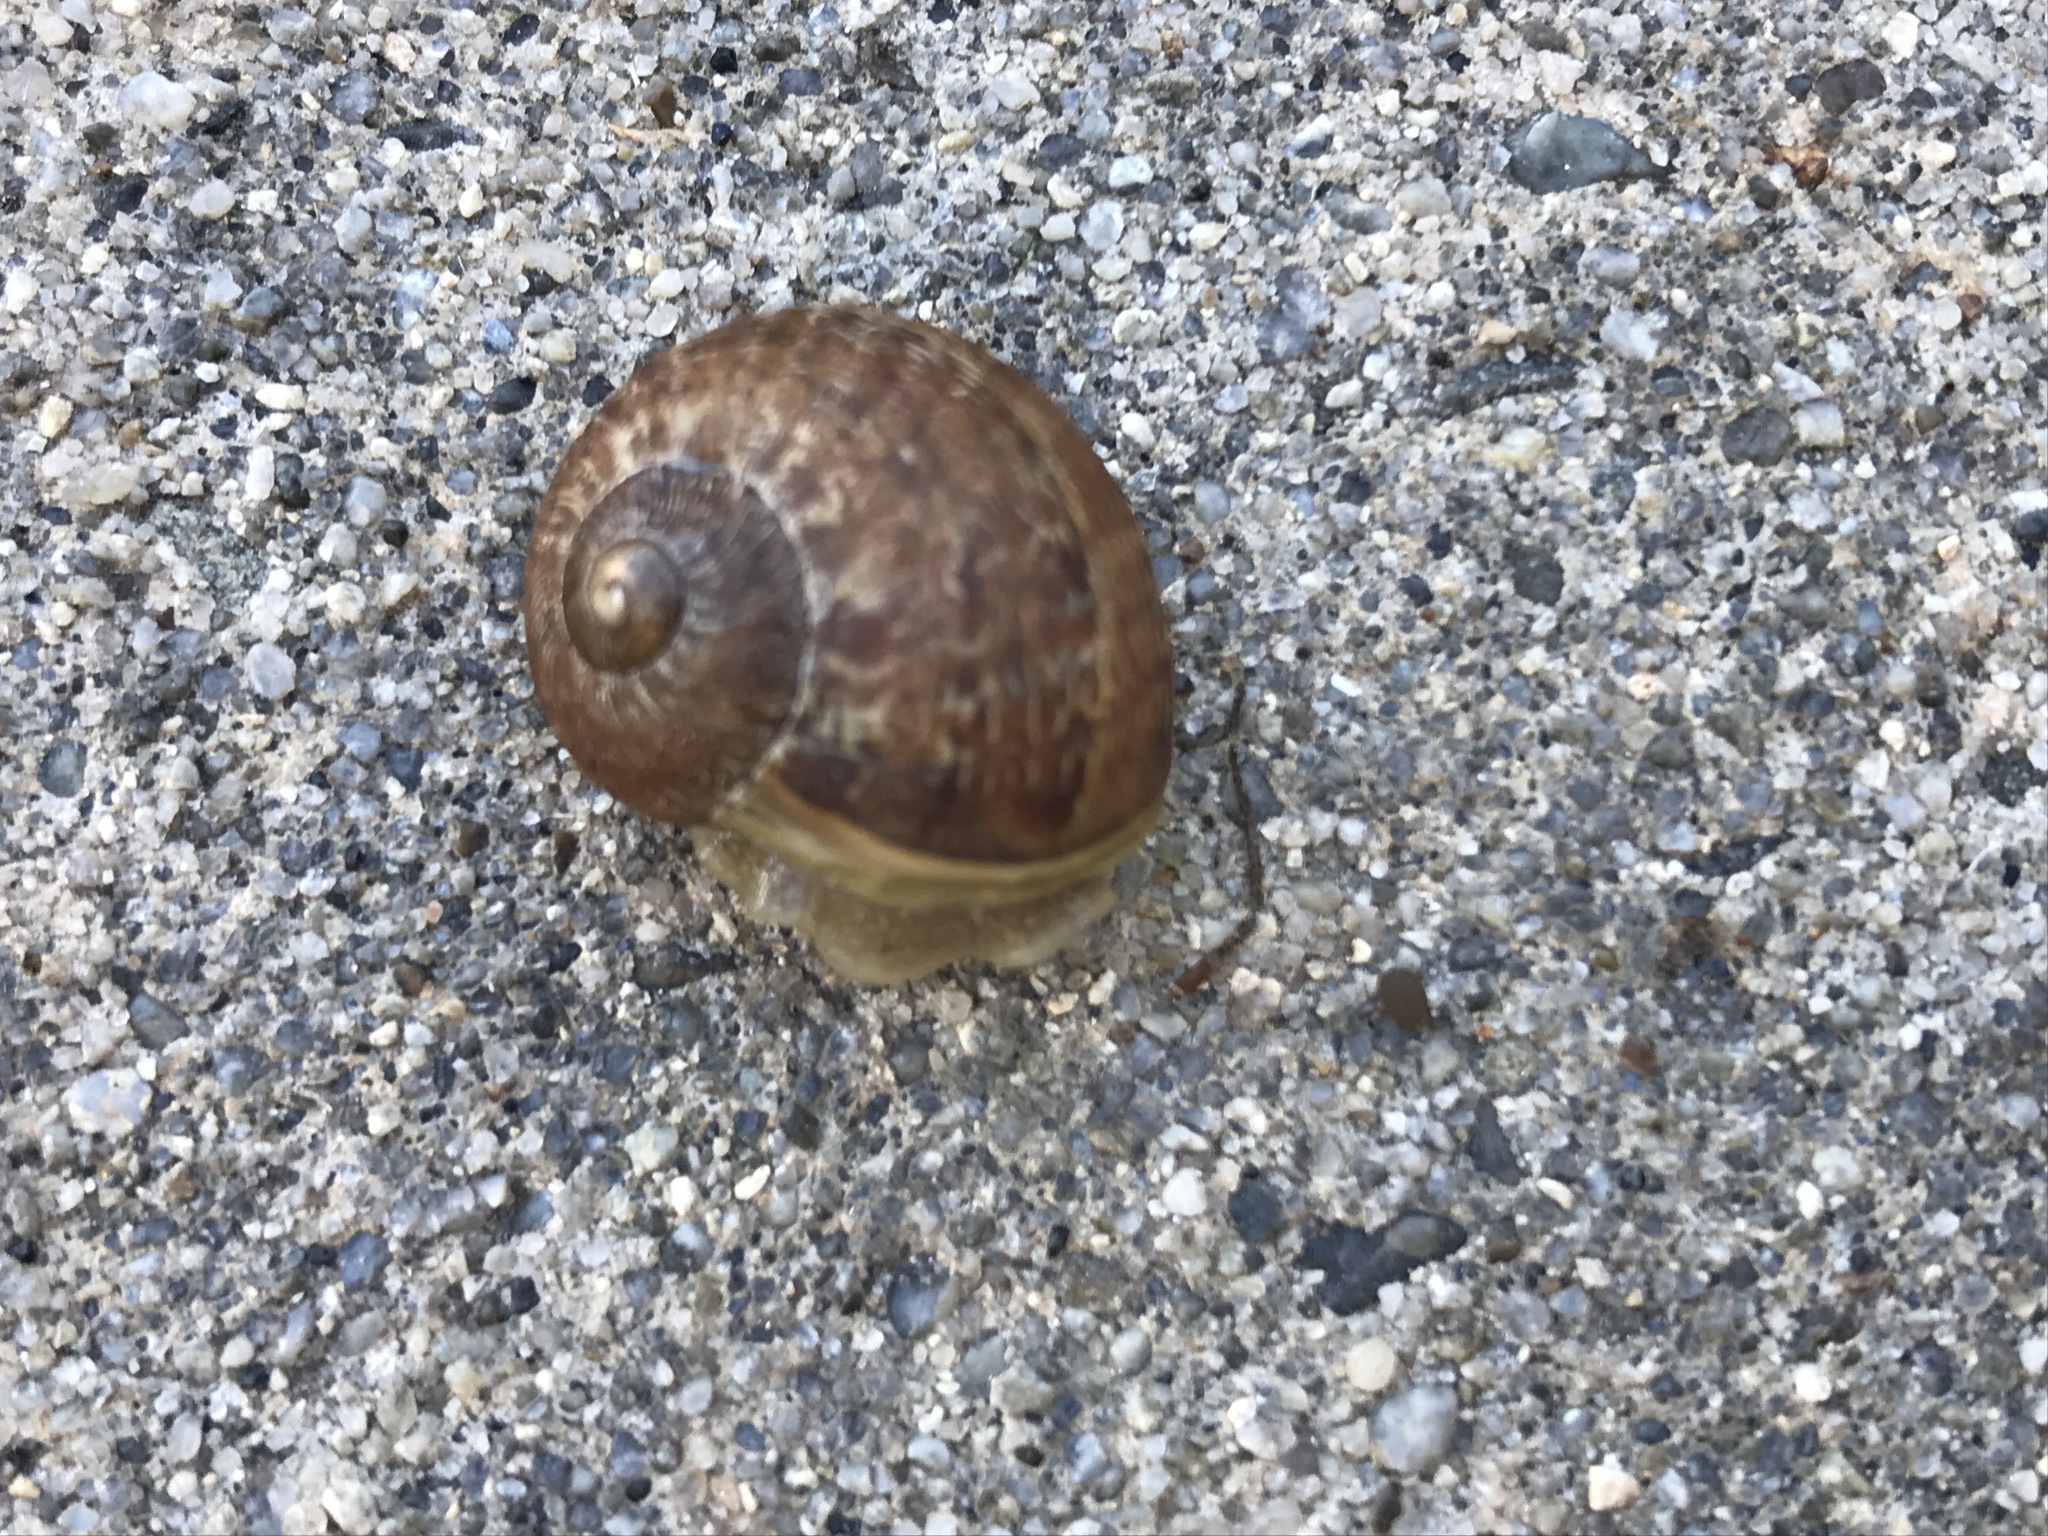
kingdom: Animalia
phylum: Mollusca
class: Gastropoda
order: Stylommatophora
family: Helicidae
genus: Cornu
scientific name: Cornu aspersum
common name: Brown garden snail
